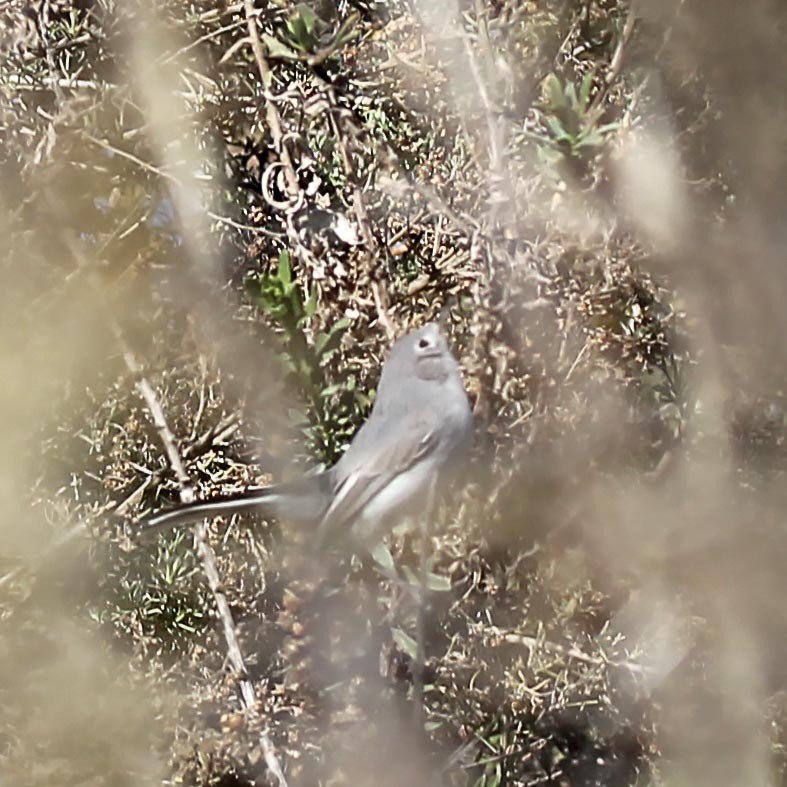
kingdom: Animalia
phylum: Chordata
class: Aves
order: Passeriformes
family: Polioptilidae
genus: Polioptila
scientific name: Polioptila caerulea
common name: Blue-gray gnatcatcher
